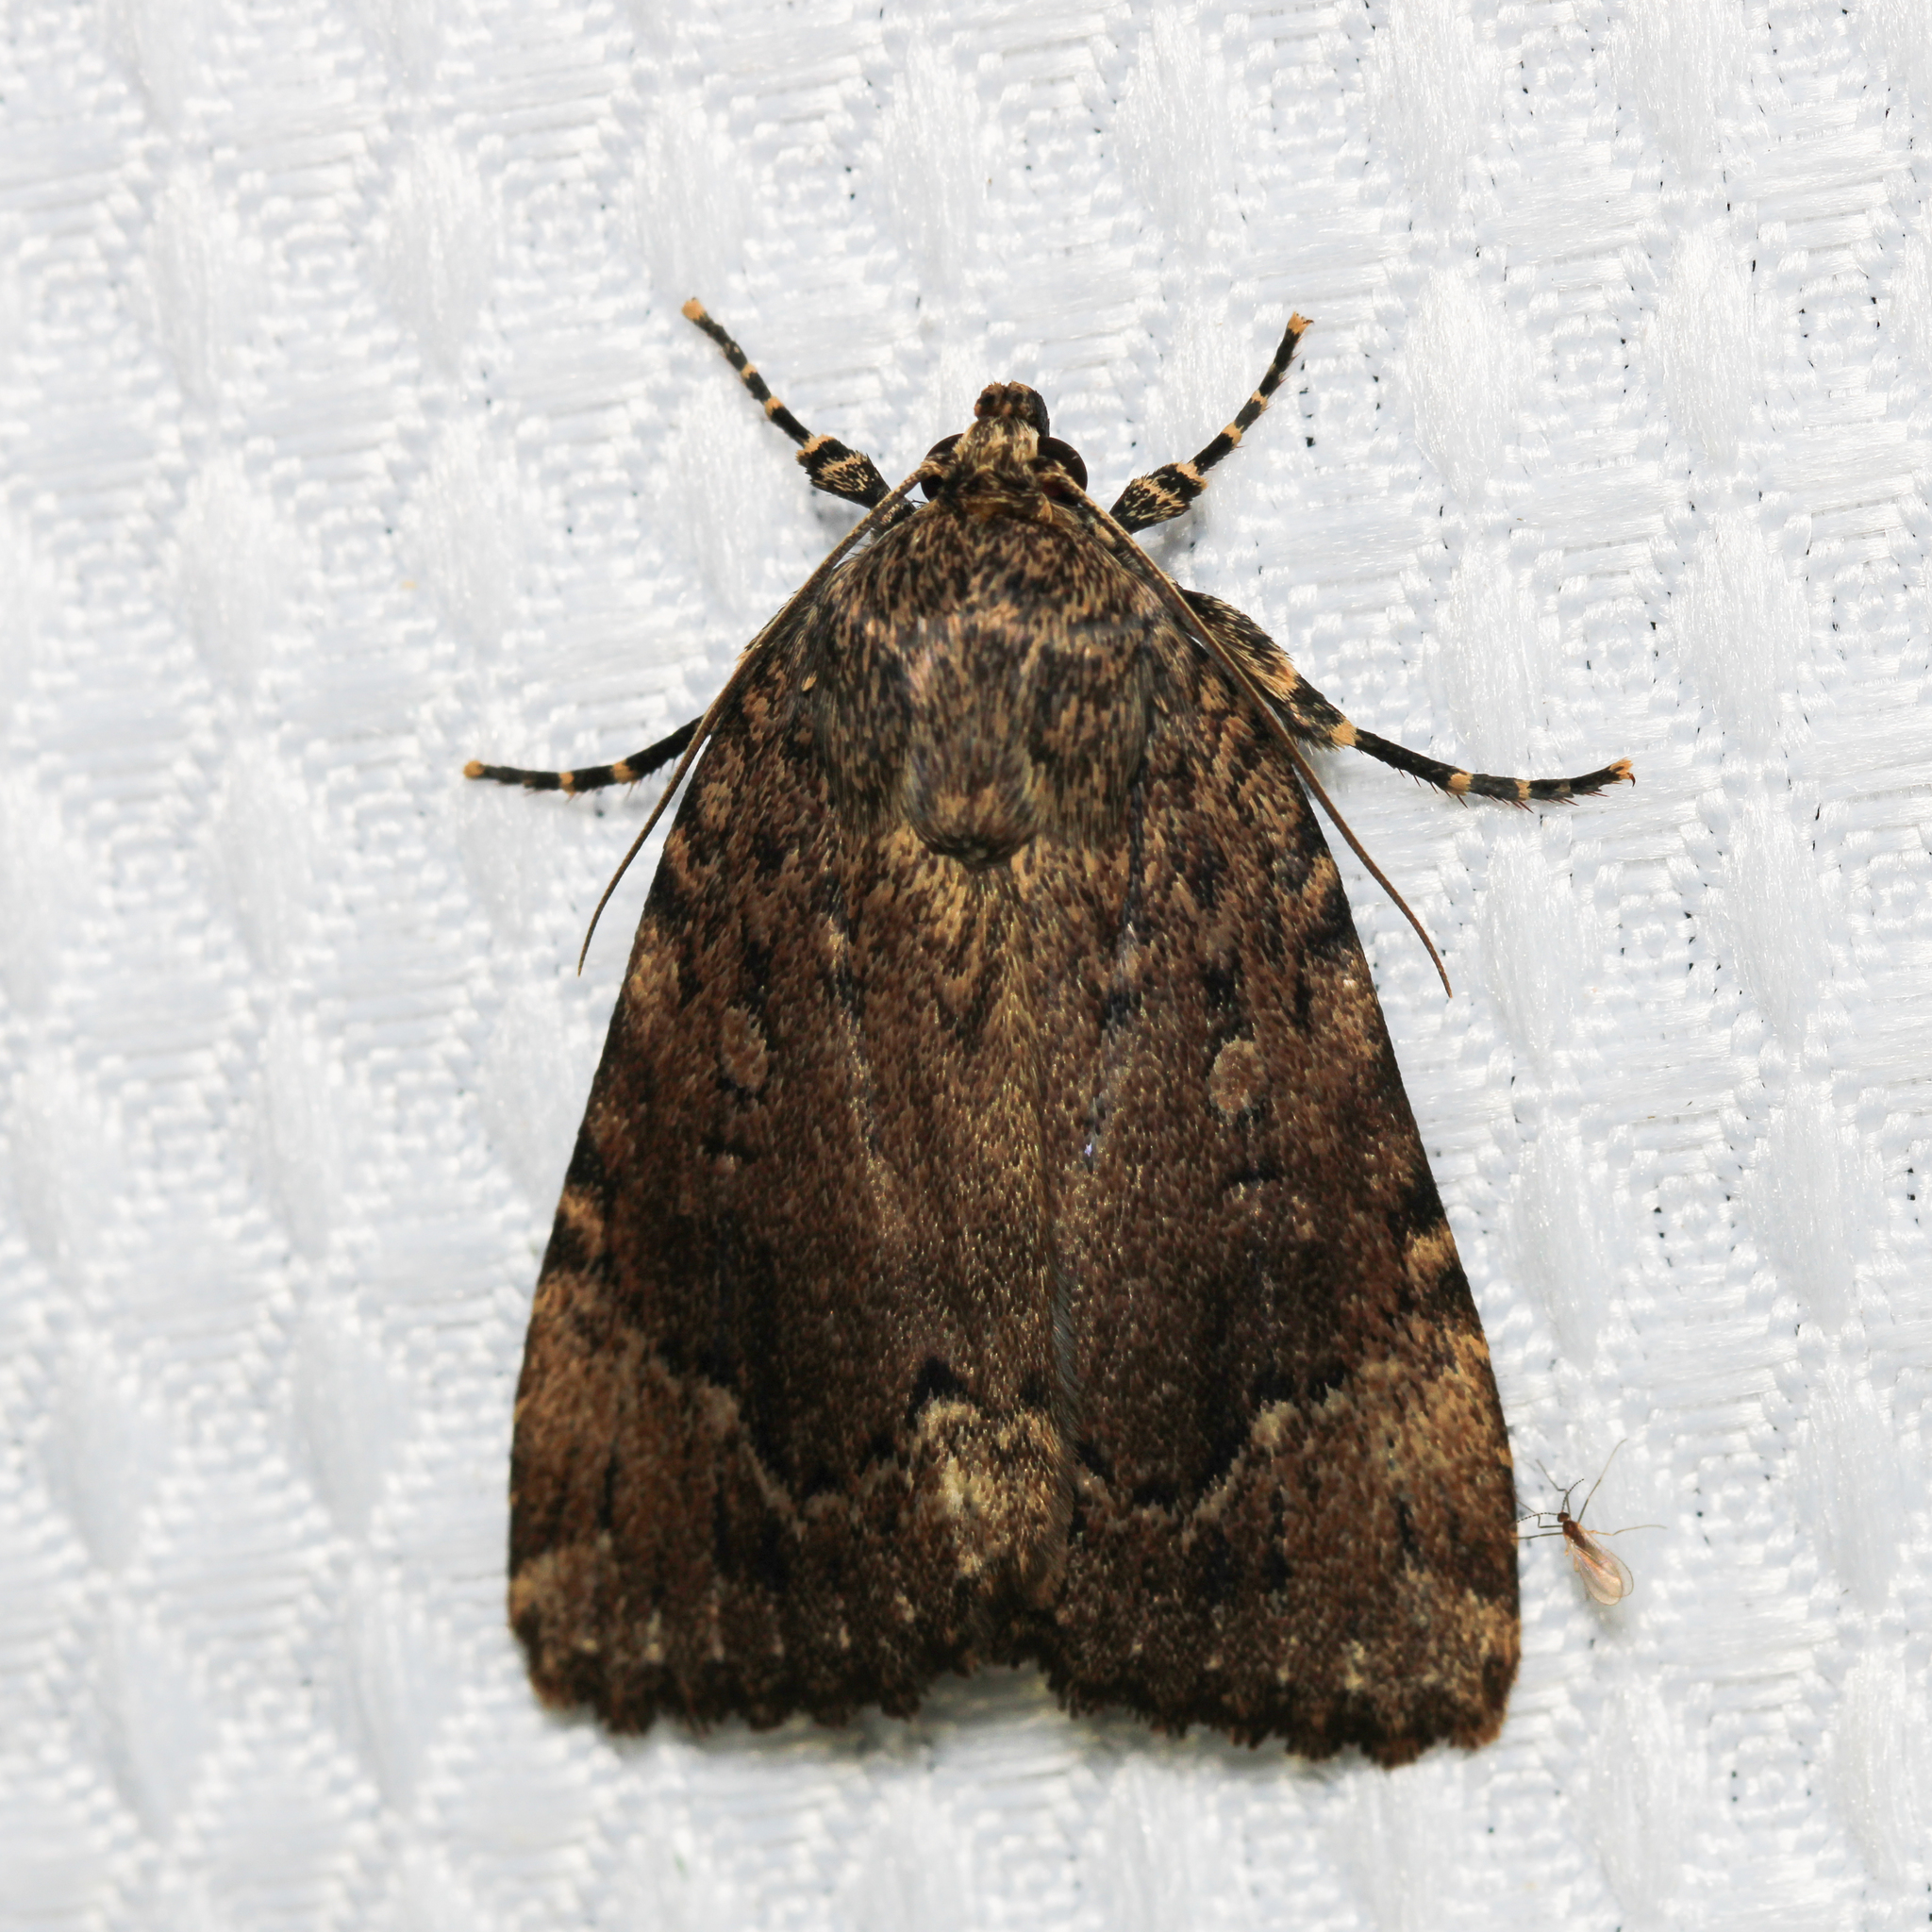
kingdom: Animalia
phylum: Arthropoda
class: Insecta
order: Lepidoptera
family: Noctuidae
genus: Amphipyra
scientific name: Amphipyra pyramidoides
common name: American copper underwing
